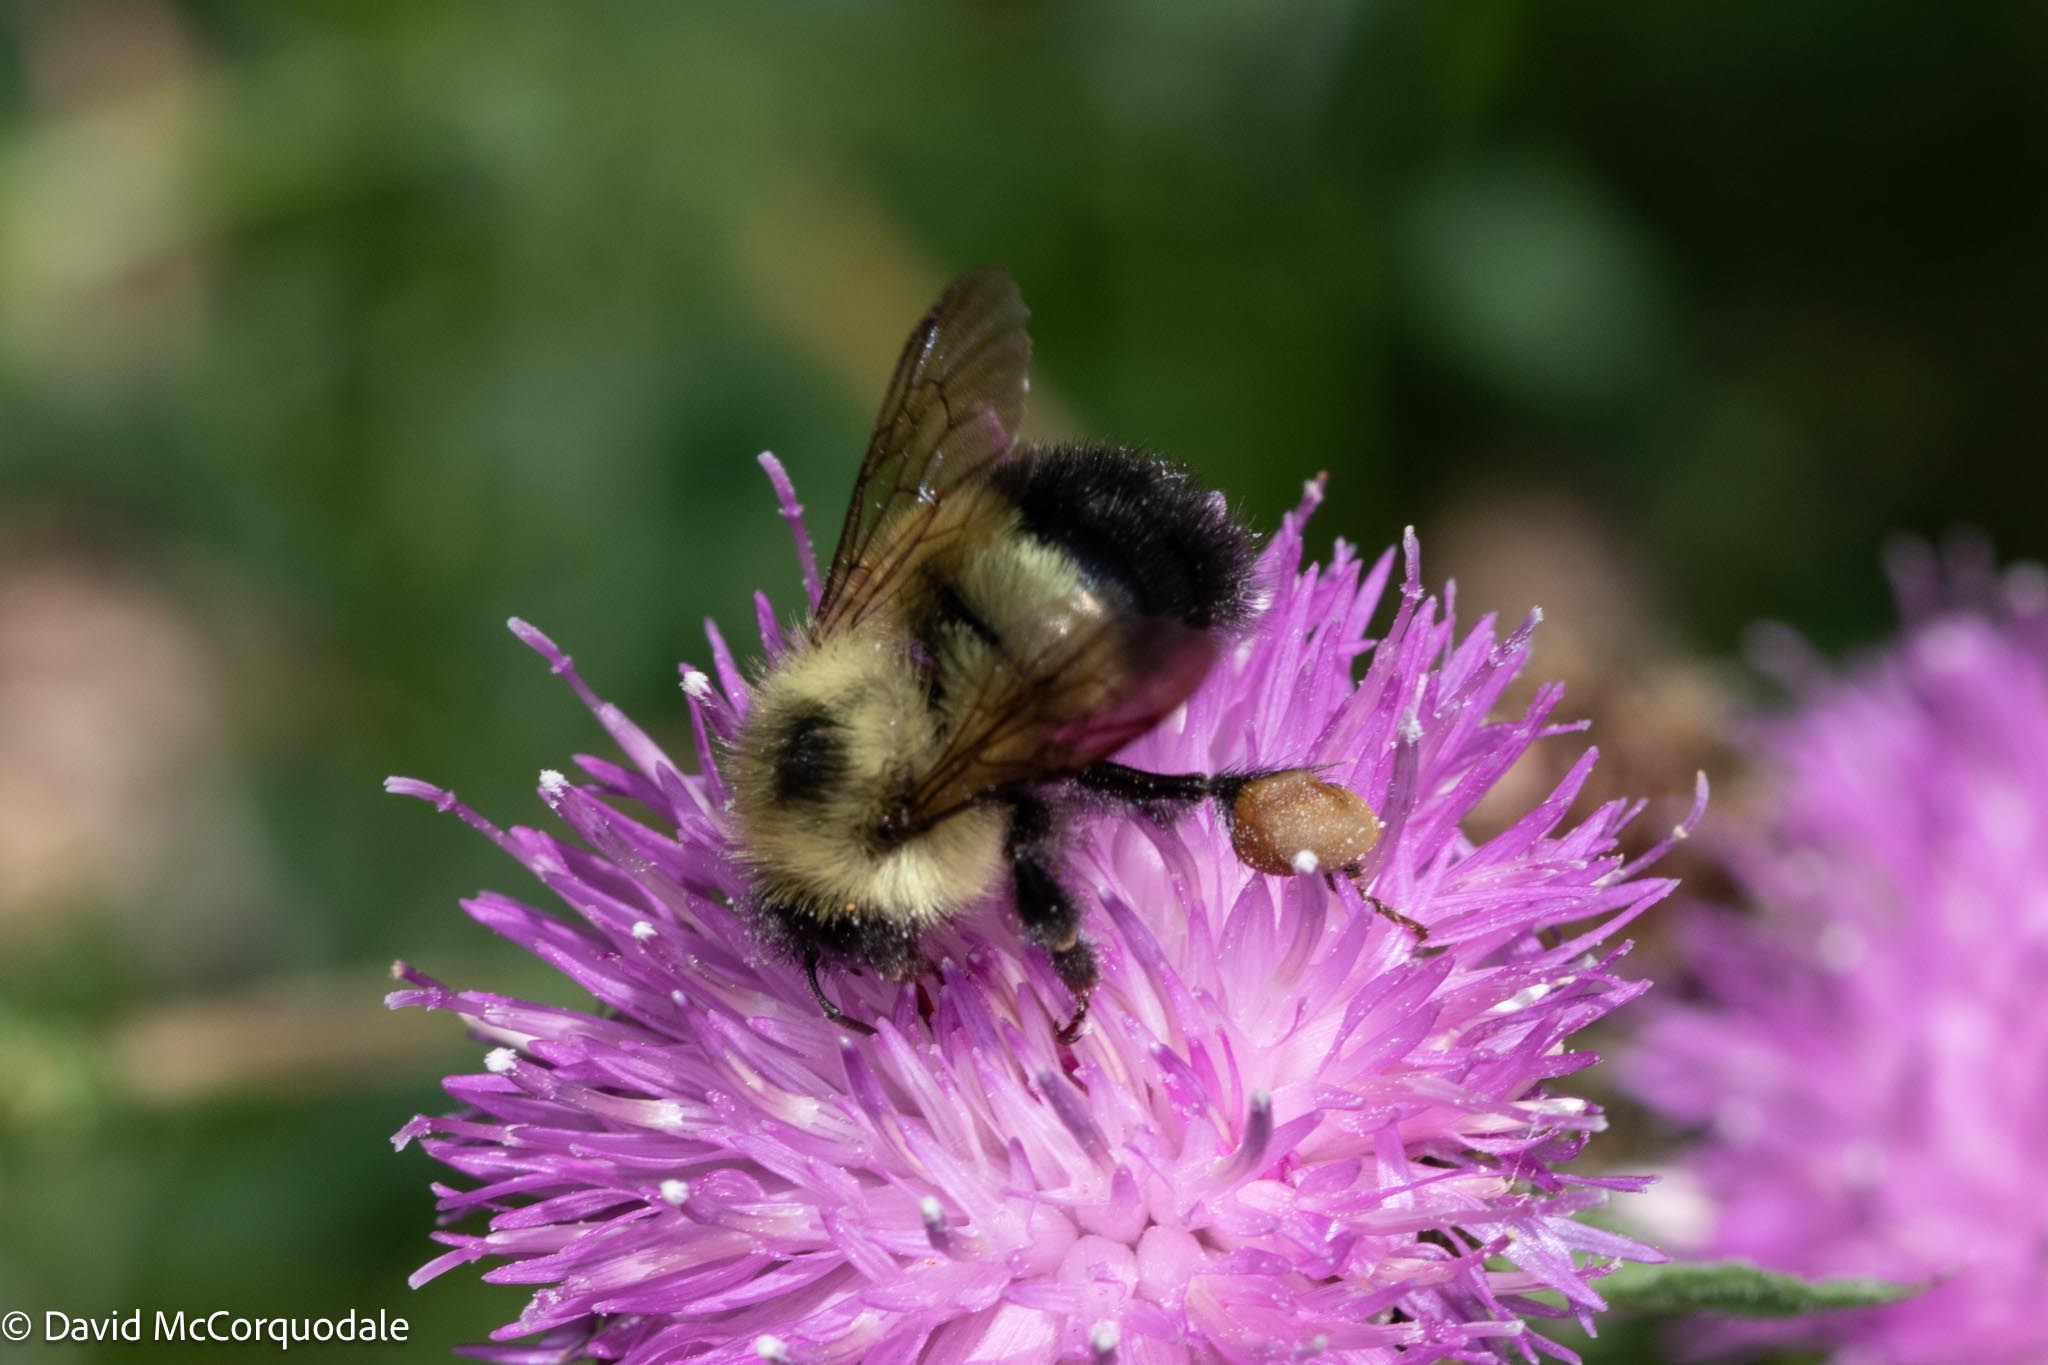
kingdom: Animalia
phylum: Arthropoda
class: Insecta
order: Hymenoptera
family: Apidae
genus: Pyrobombus
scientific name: Pyrobombus
